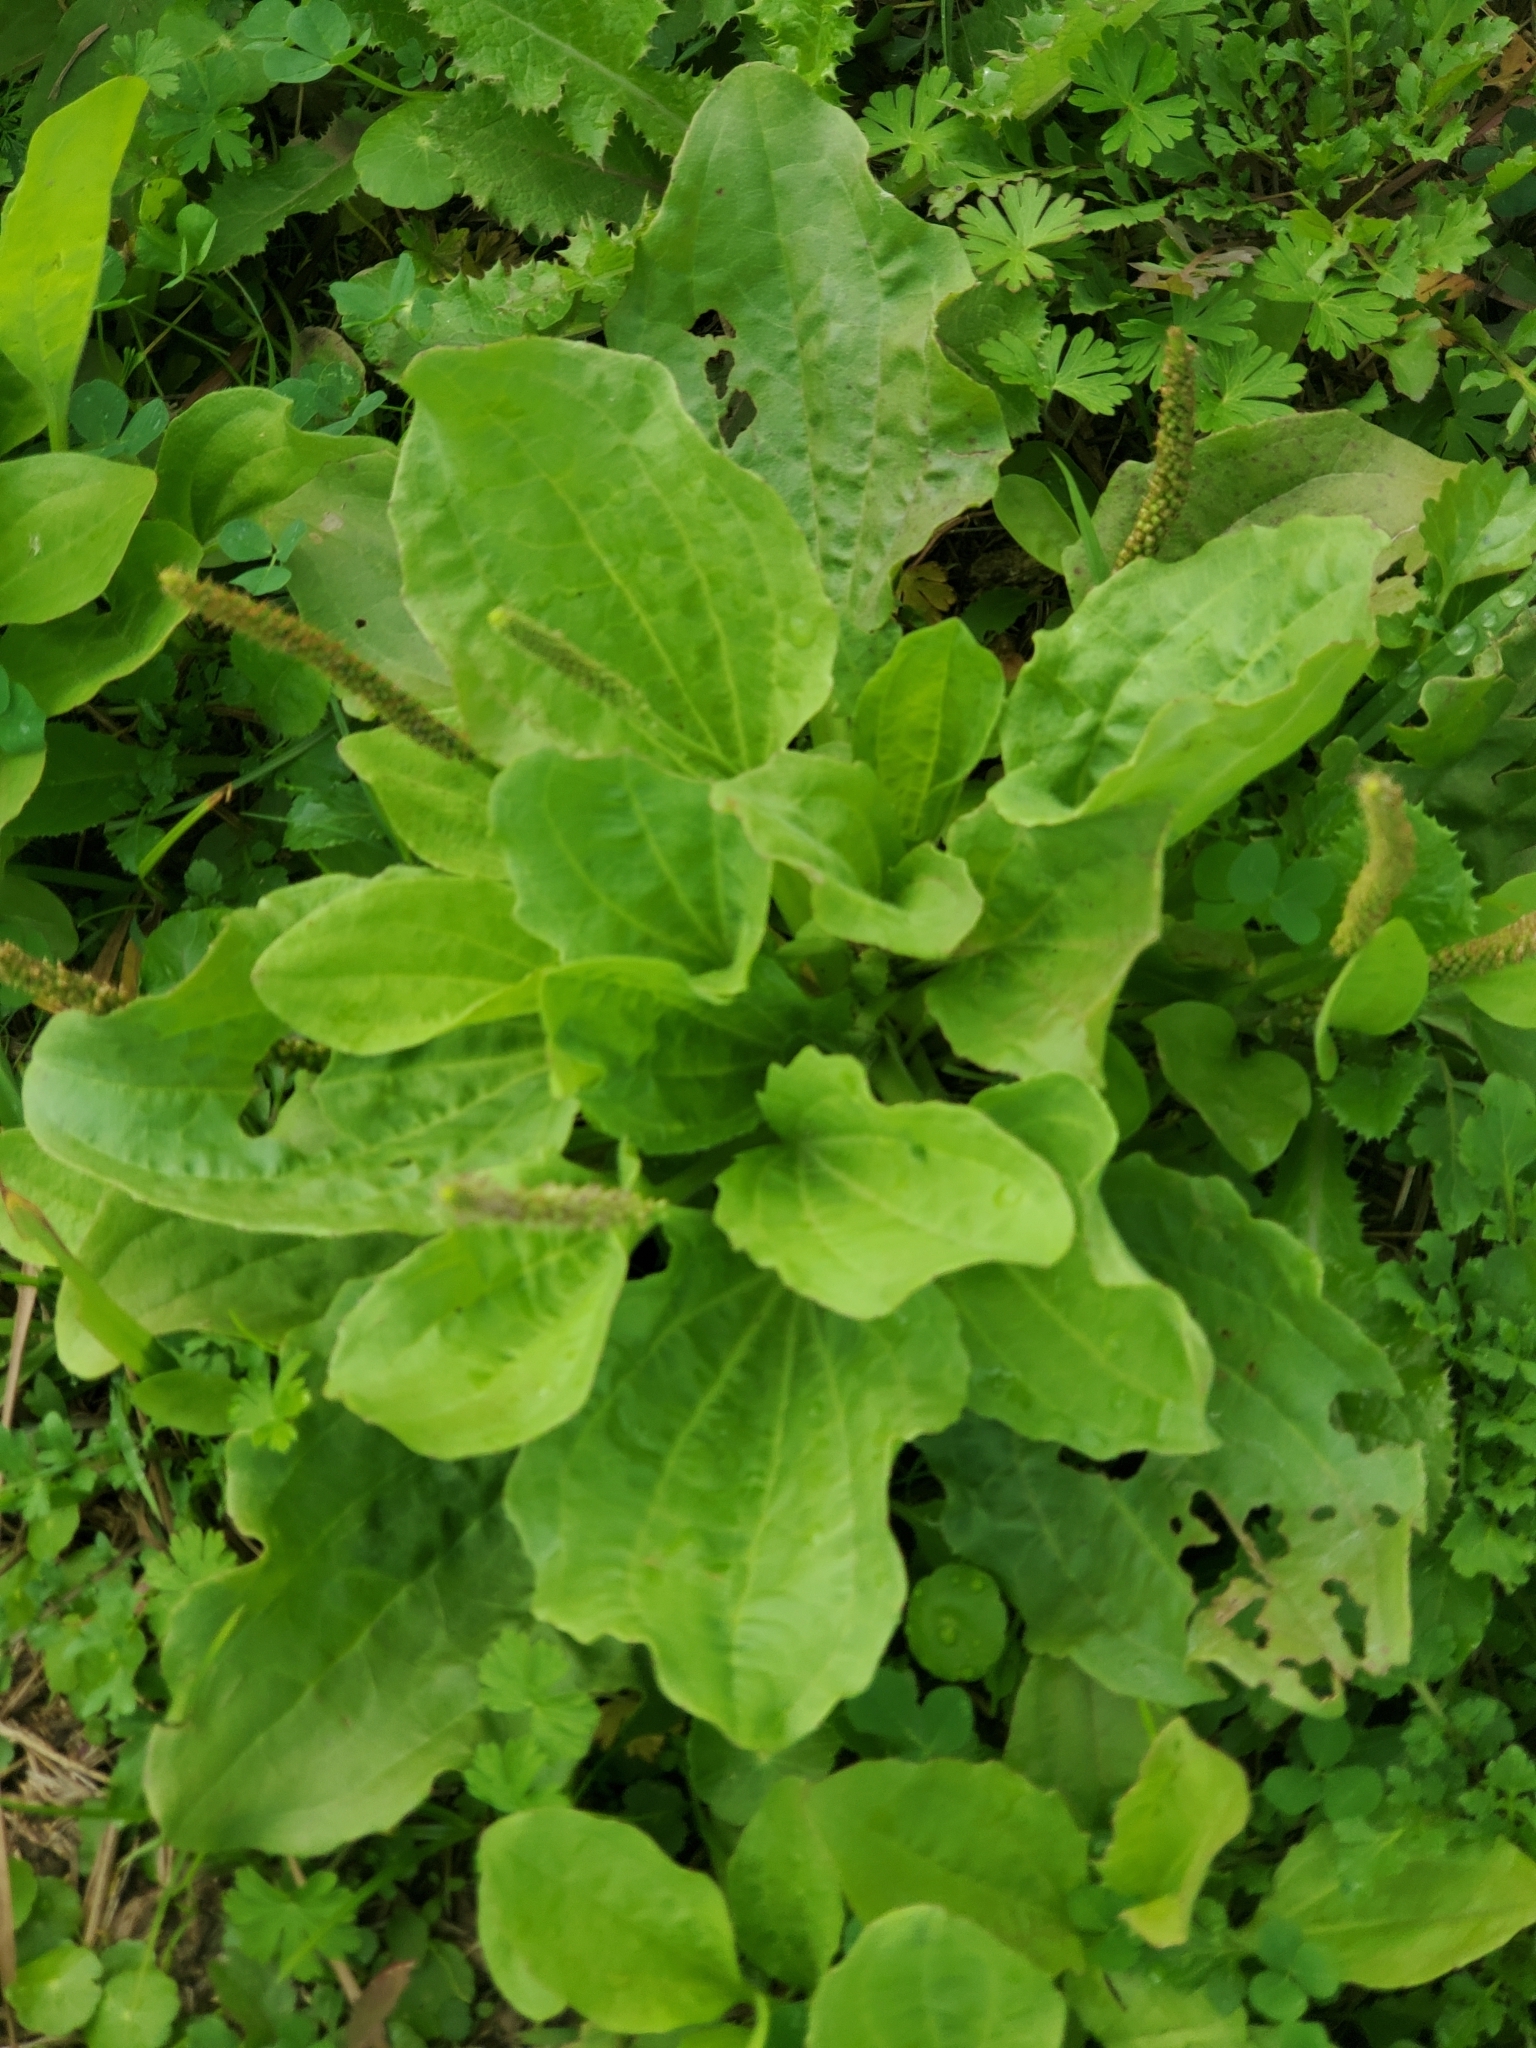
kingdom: Plantae
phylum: Tracheophyta
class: Magnoliopsida
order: Lamiales
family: Plantaginaceae
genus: Plantago
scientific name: Plantago major
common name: Common plantain
